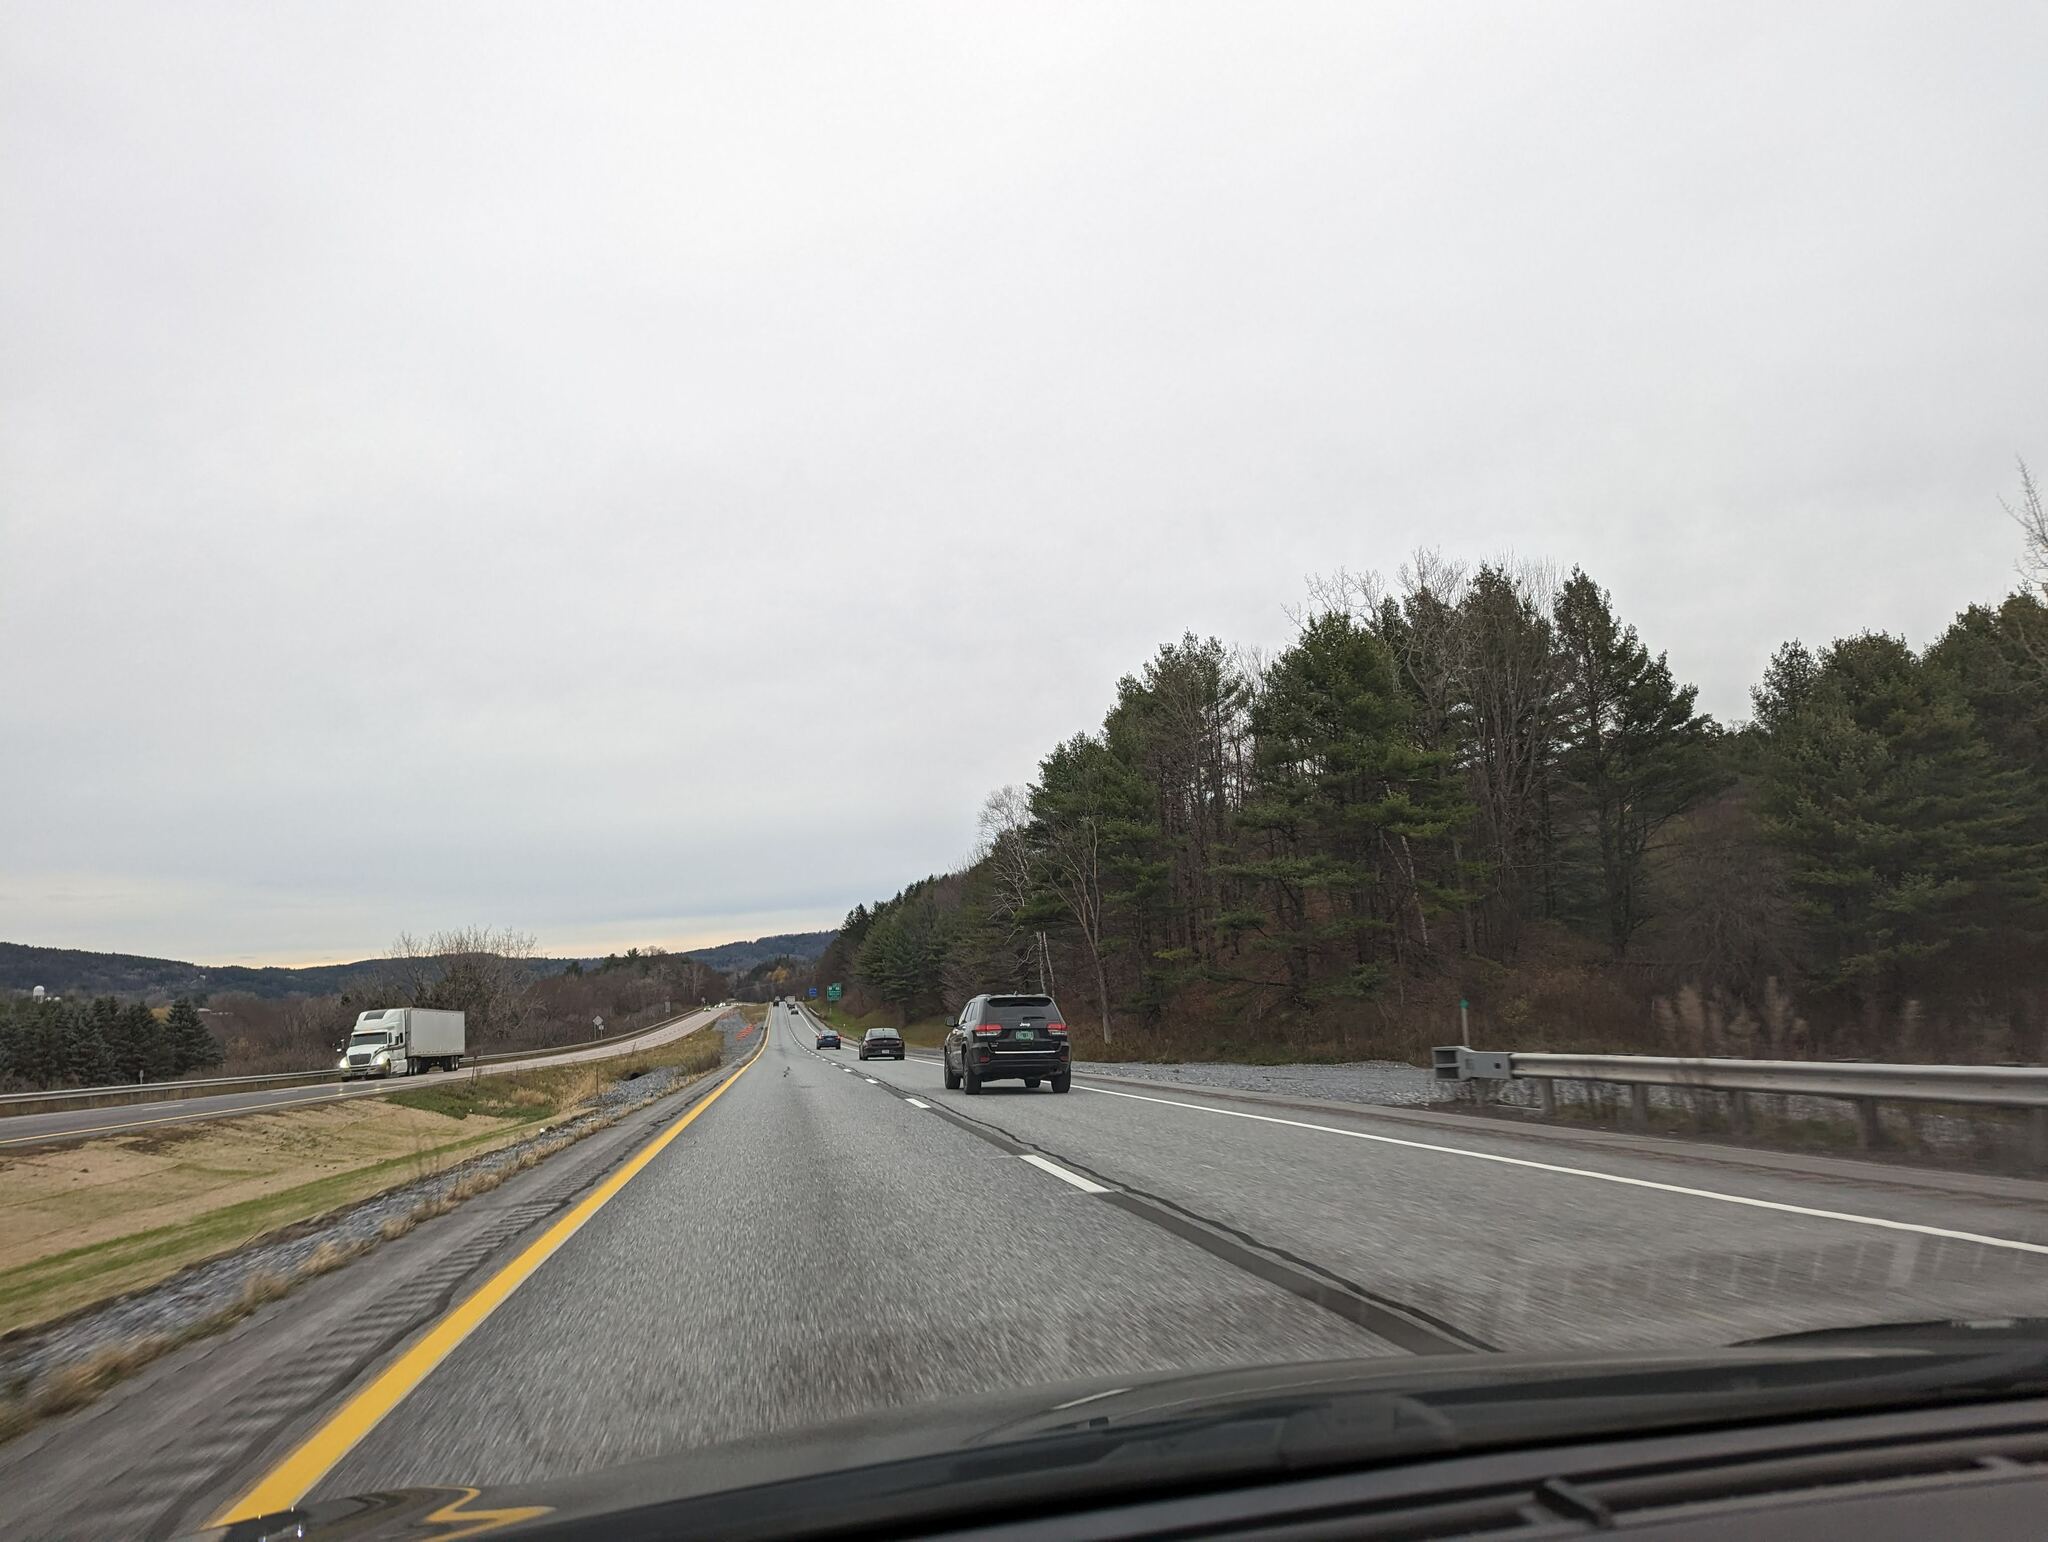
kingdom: Plantae
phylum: Tracheophyta
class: Pinopsida
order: Pinales
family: Pinaceae
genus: Pinus
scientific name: Pinus strobus
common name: Weymouth pine
